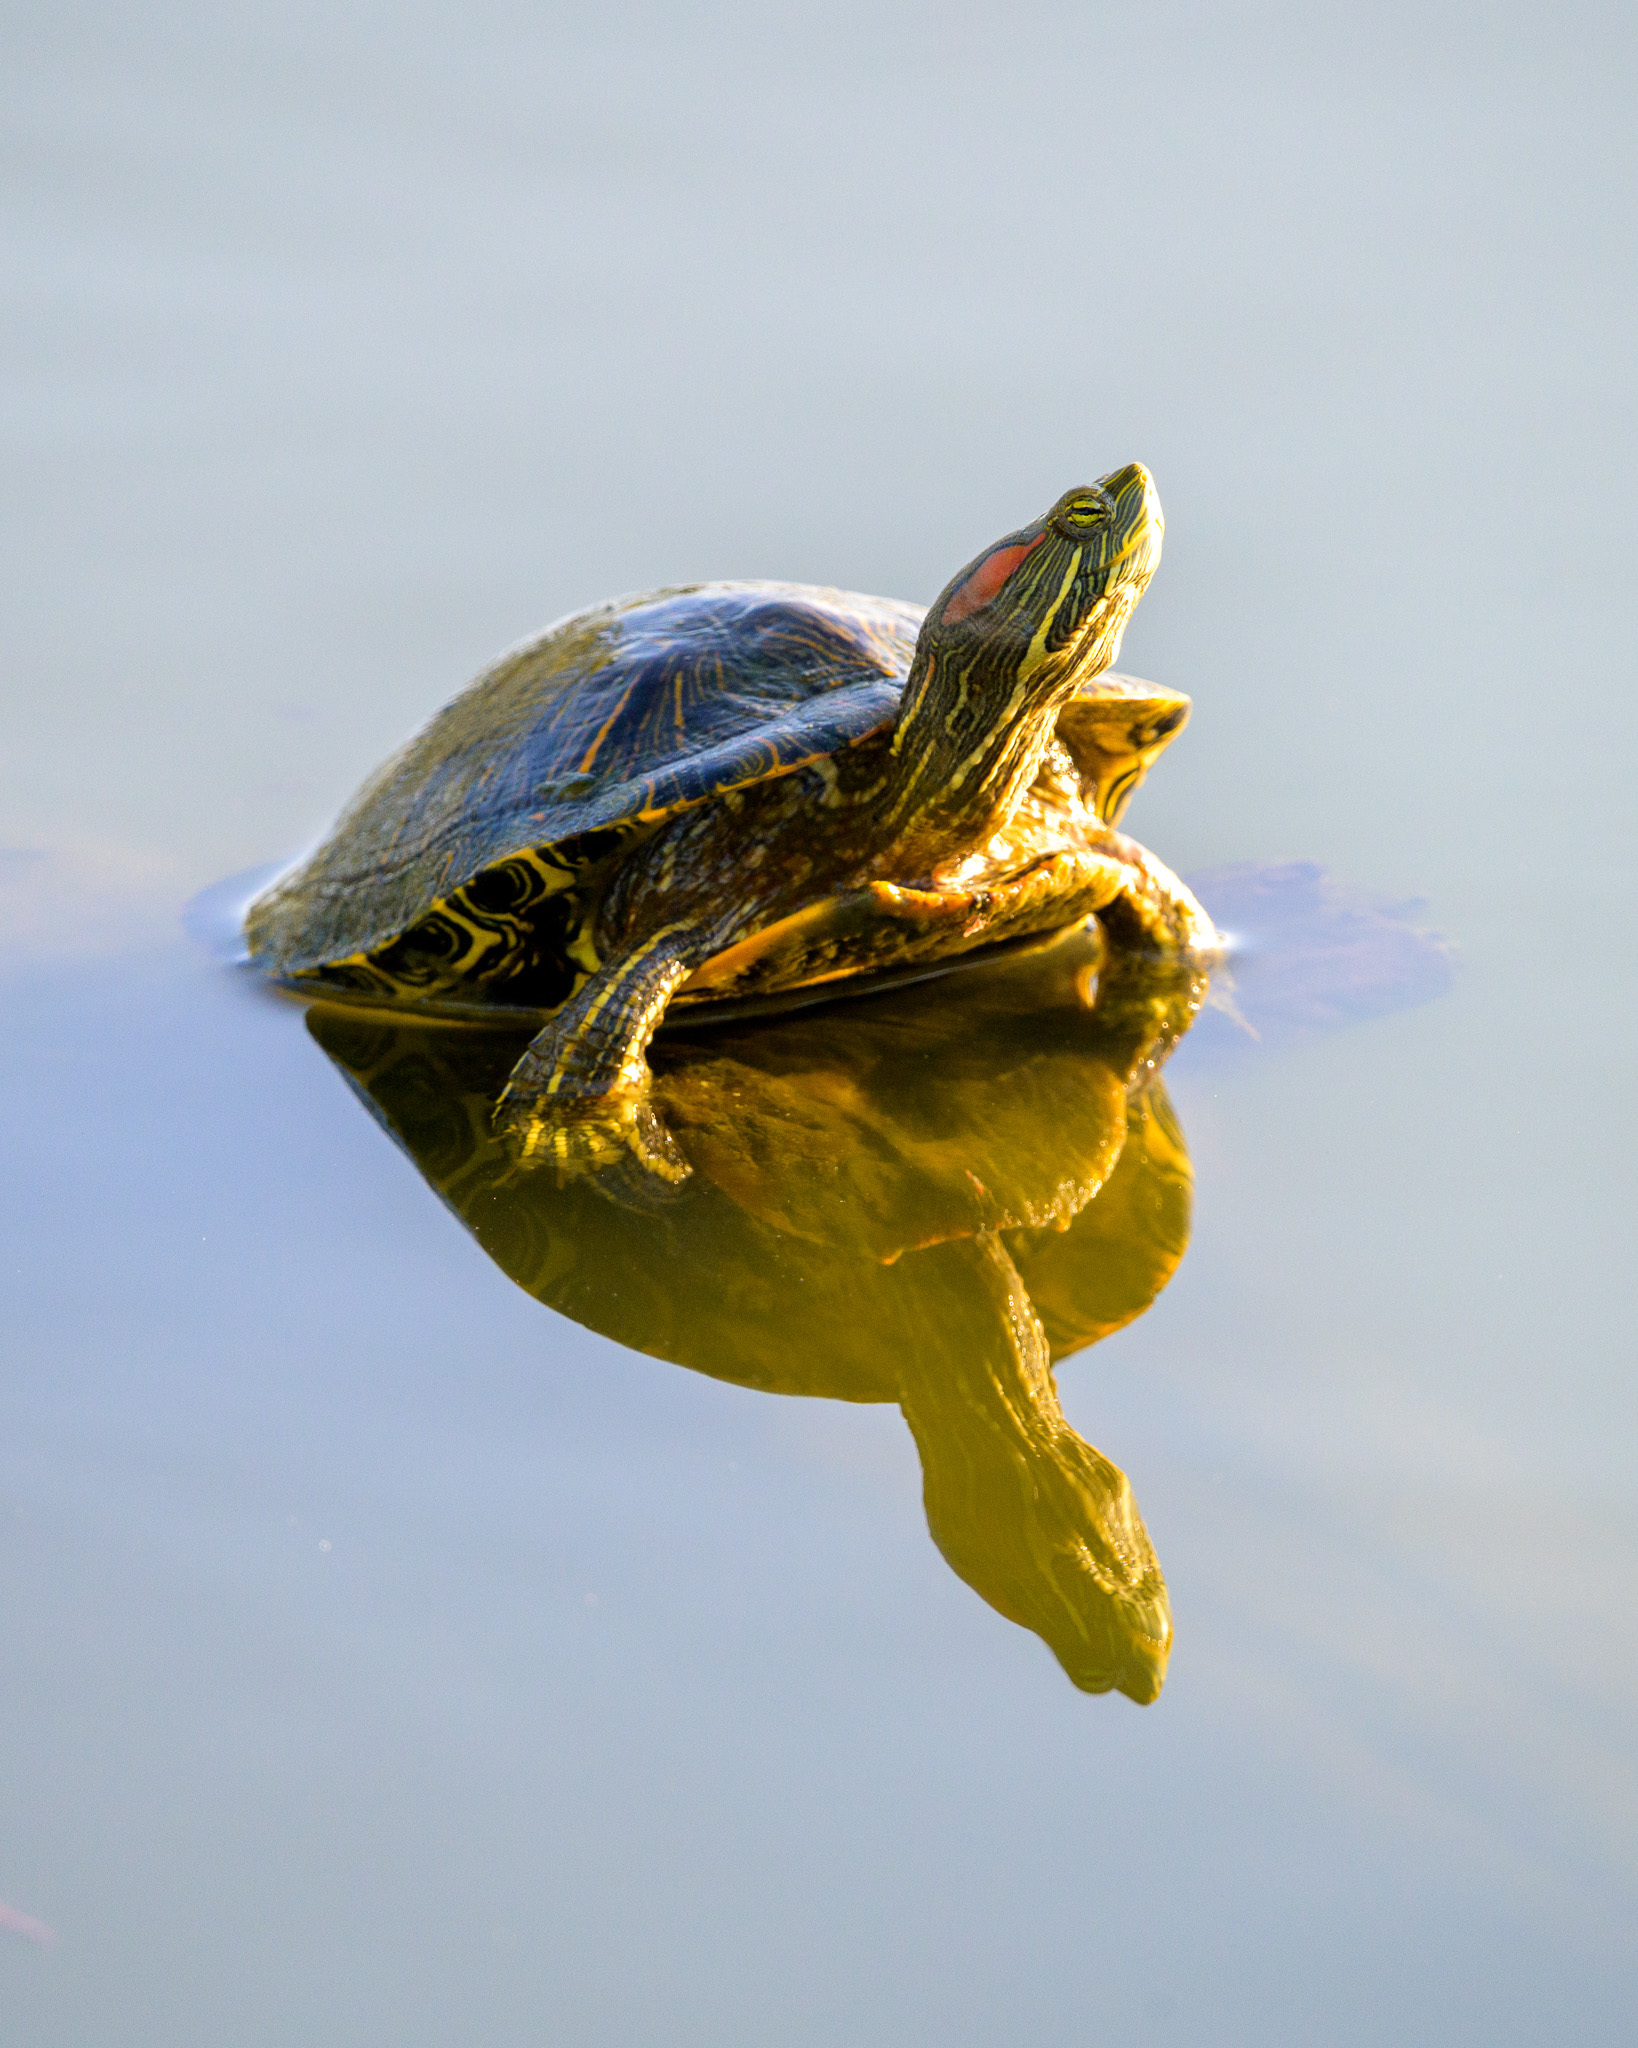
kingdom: Animalia
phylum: Chordata
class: Testudines
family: Emydidae
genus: Trachemys
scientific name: Trachemys scripta
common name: Slider
